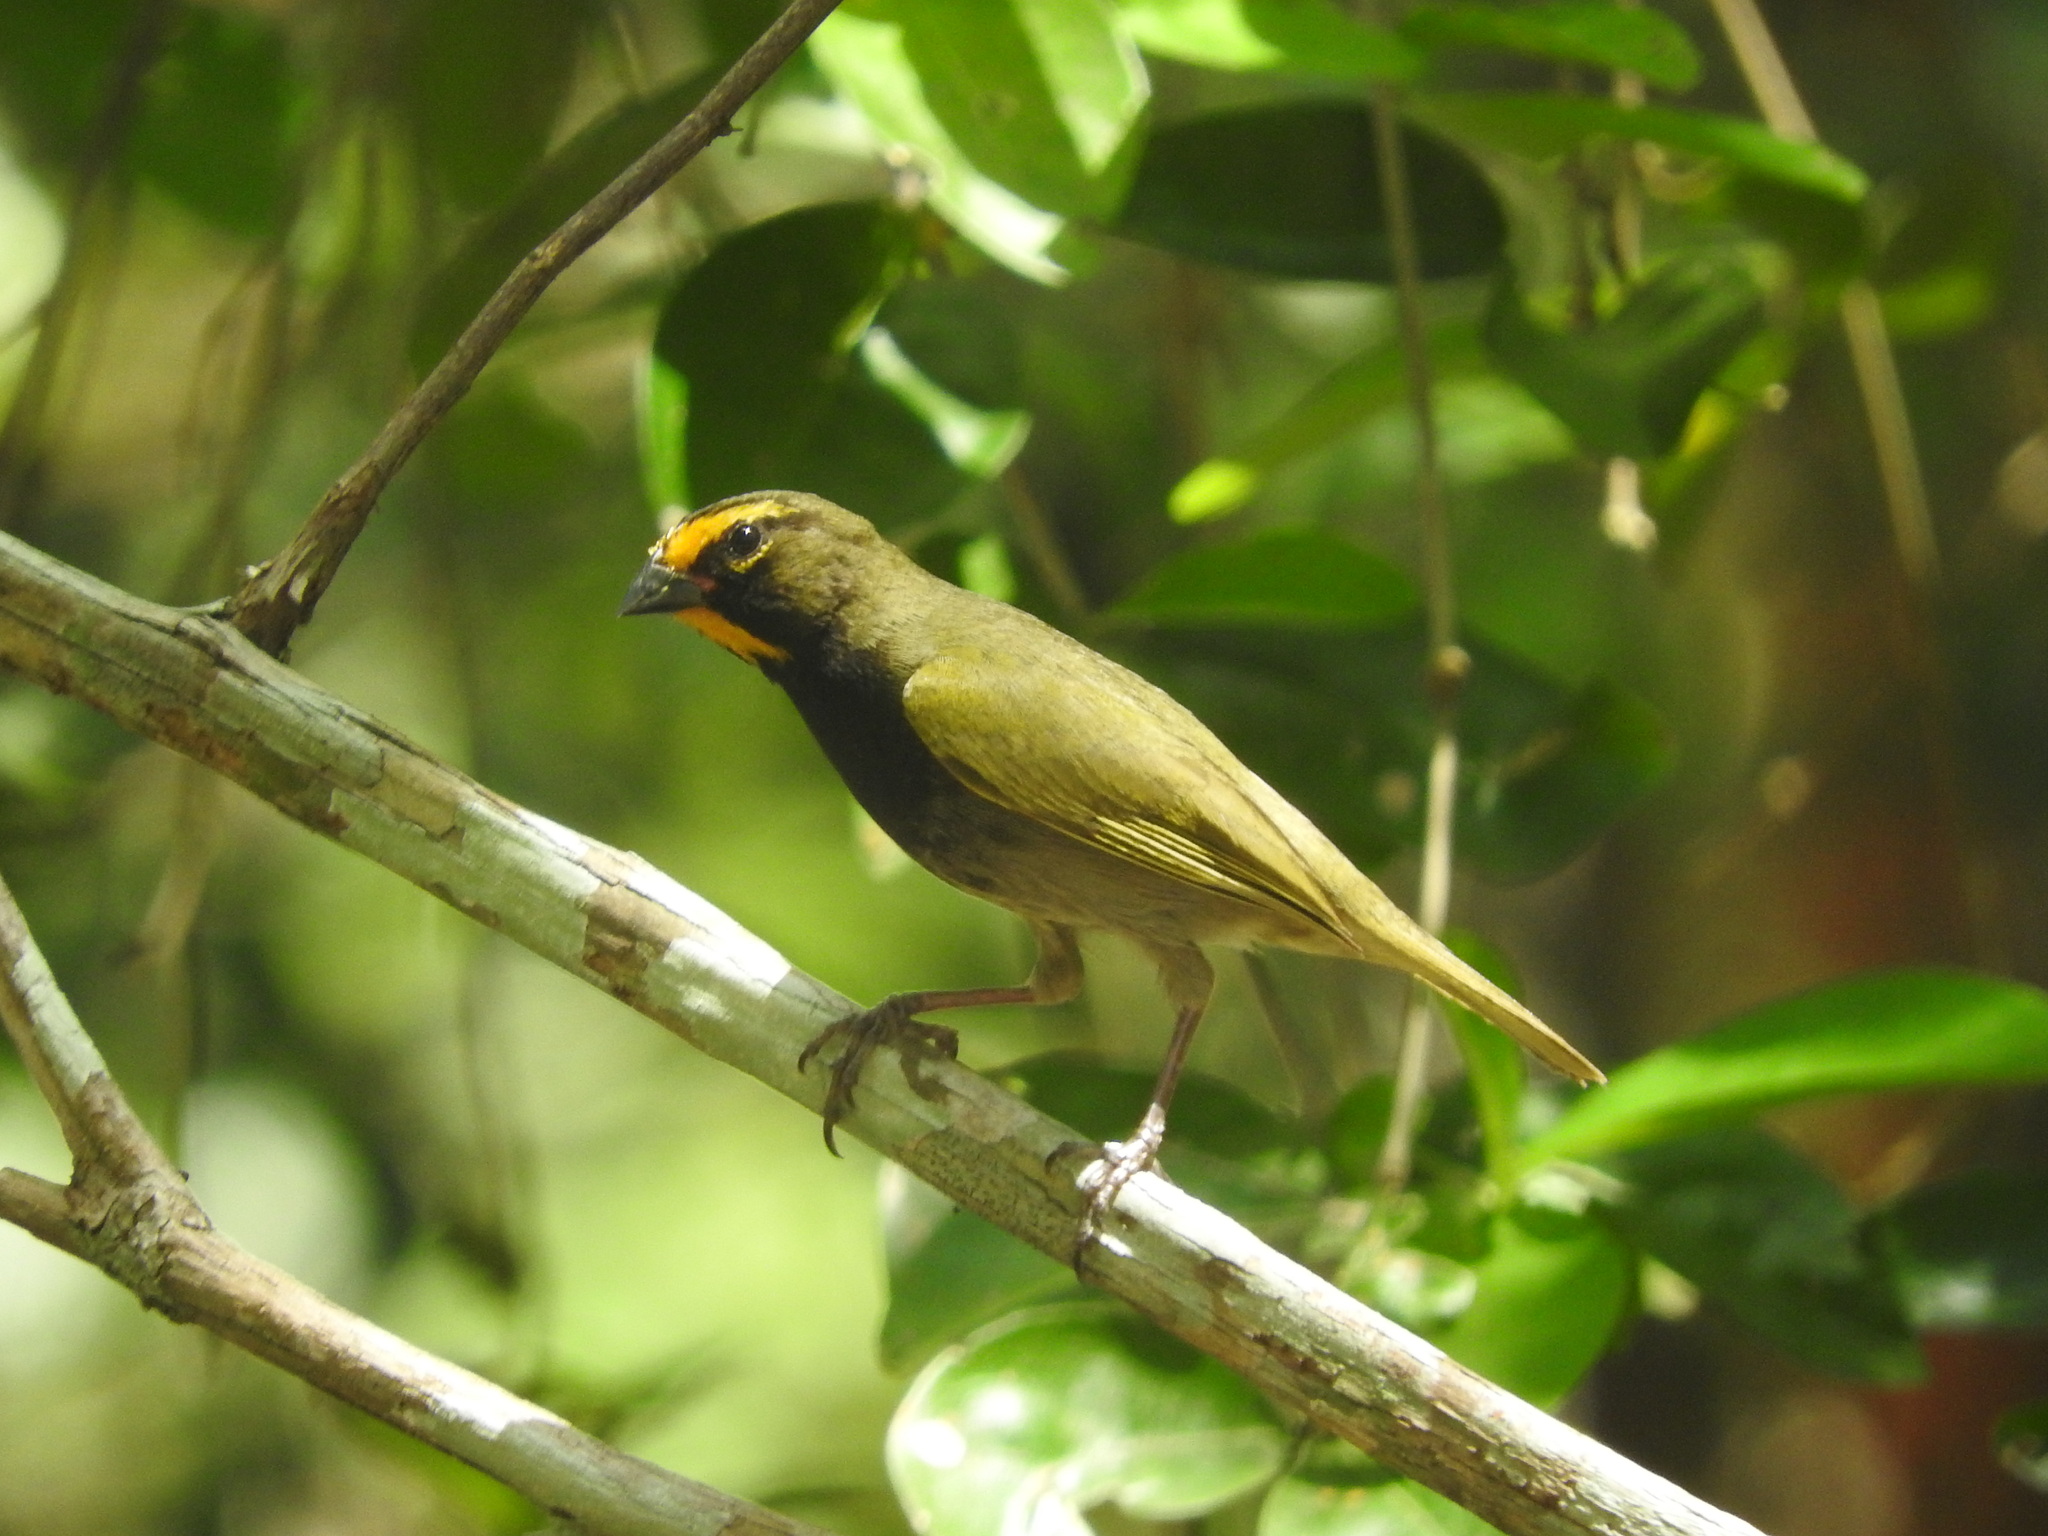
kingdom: Animalia
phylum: Chordata
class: Aves
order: Passeriformes
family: Thraupidae
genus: Tiaris
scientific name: Tiaris olivaceus
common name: Yellow-faced grassquit
